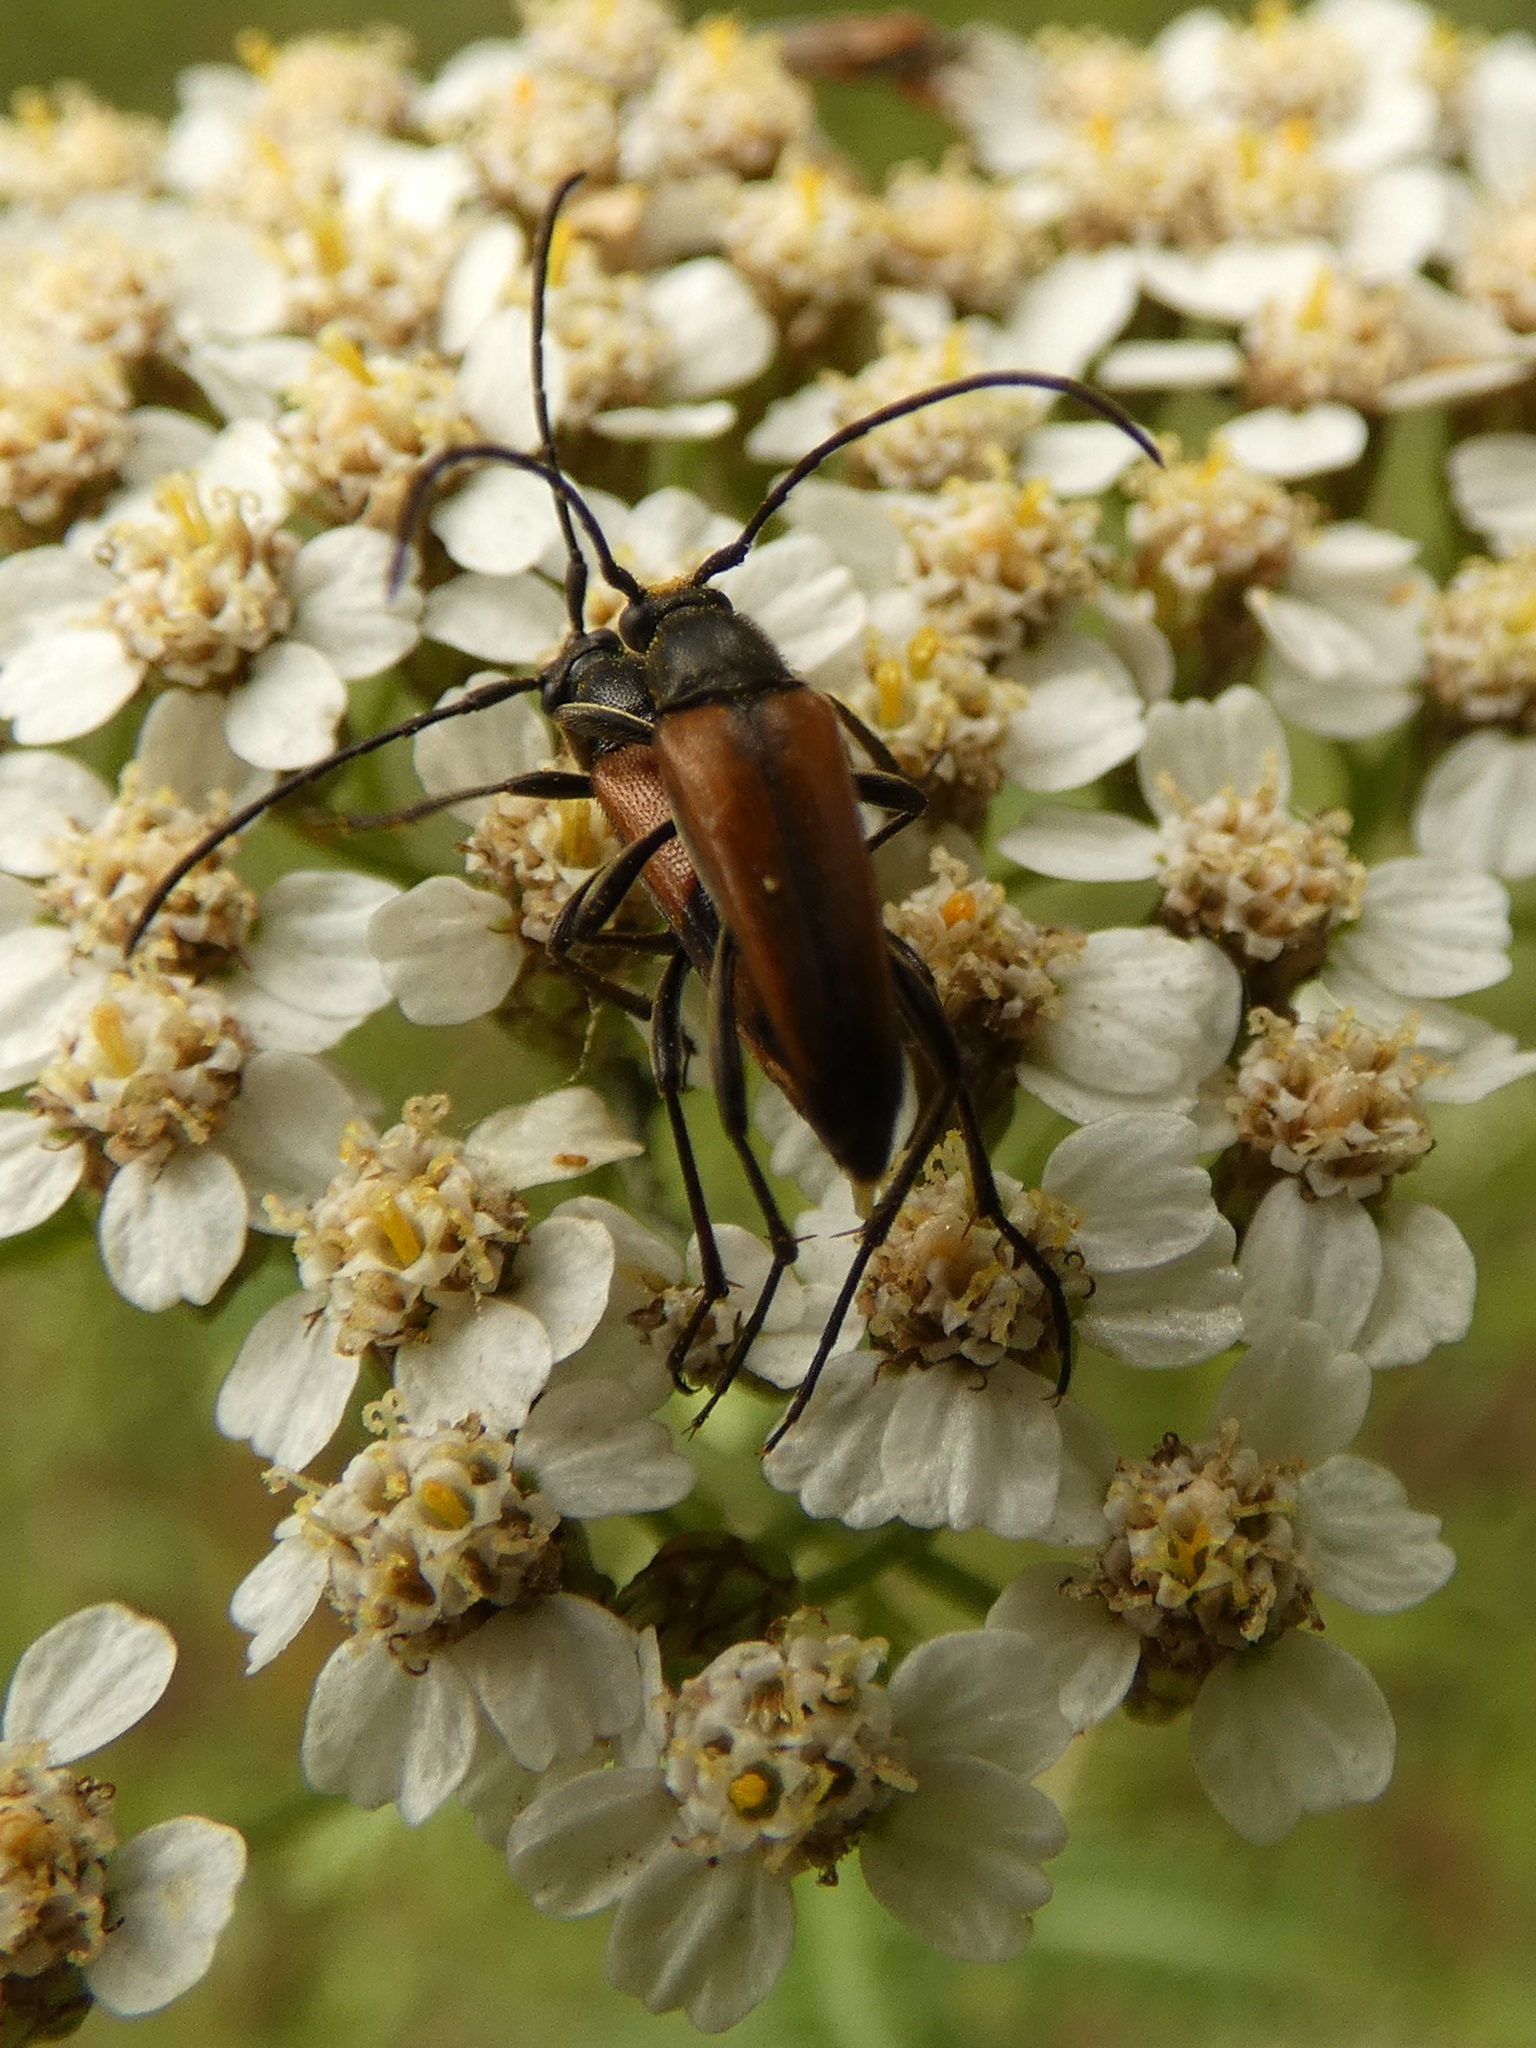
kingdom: Animalia
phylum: Arthropoda
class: Insecta
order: Coleoptera
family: Cerambycidae
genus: Stenurella
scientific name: Stenurella bifasciata
